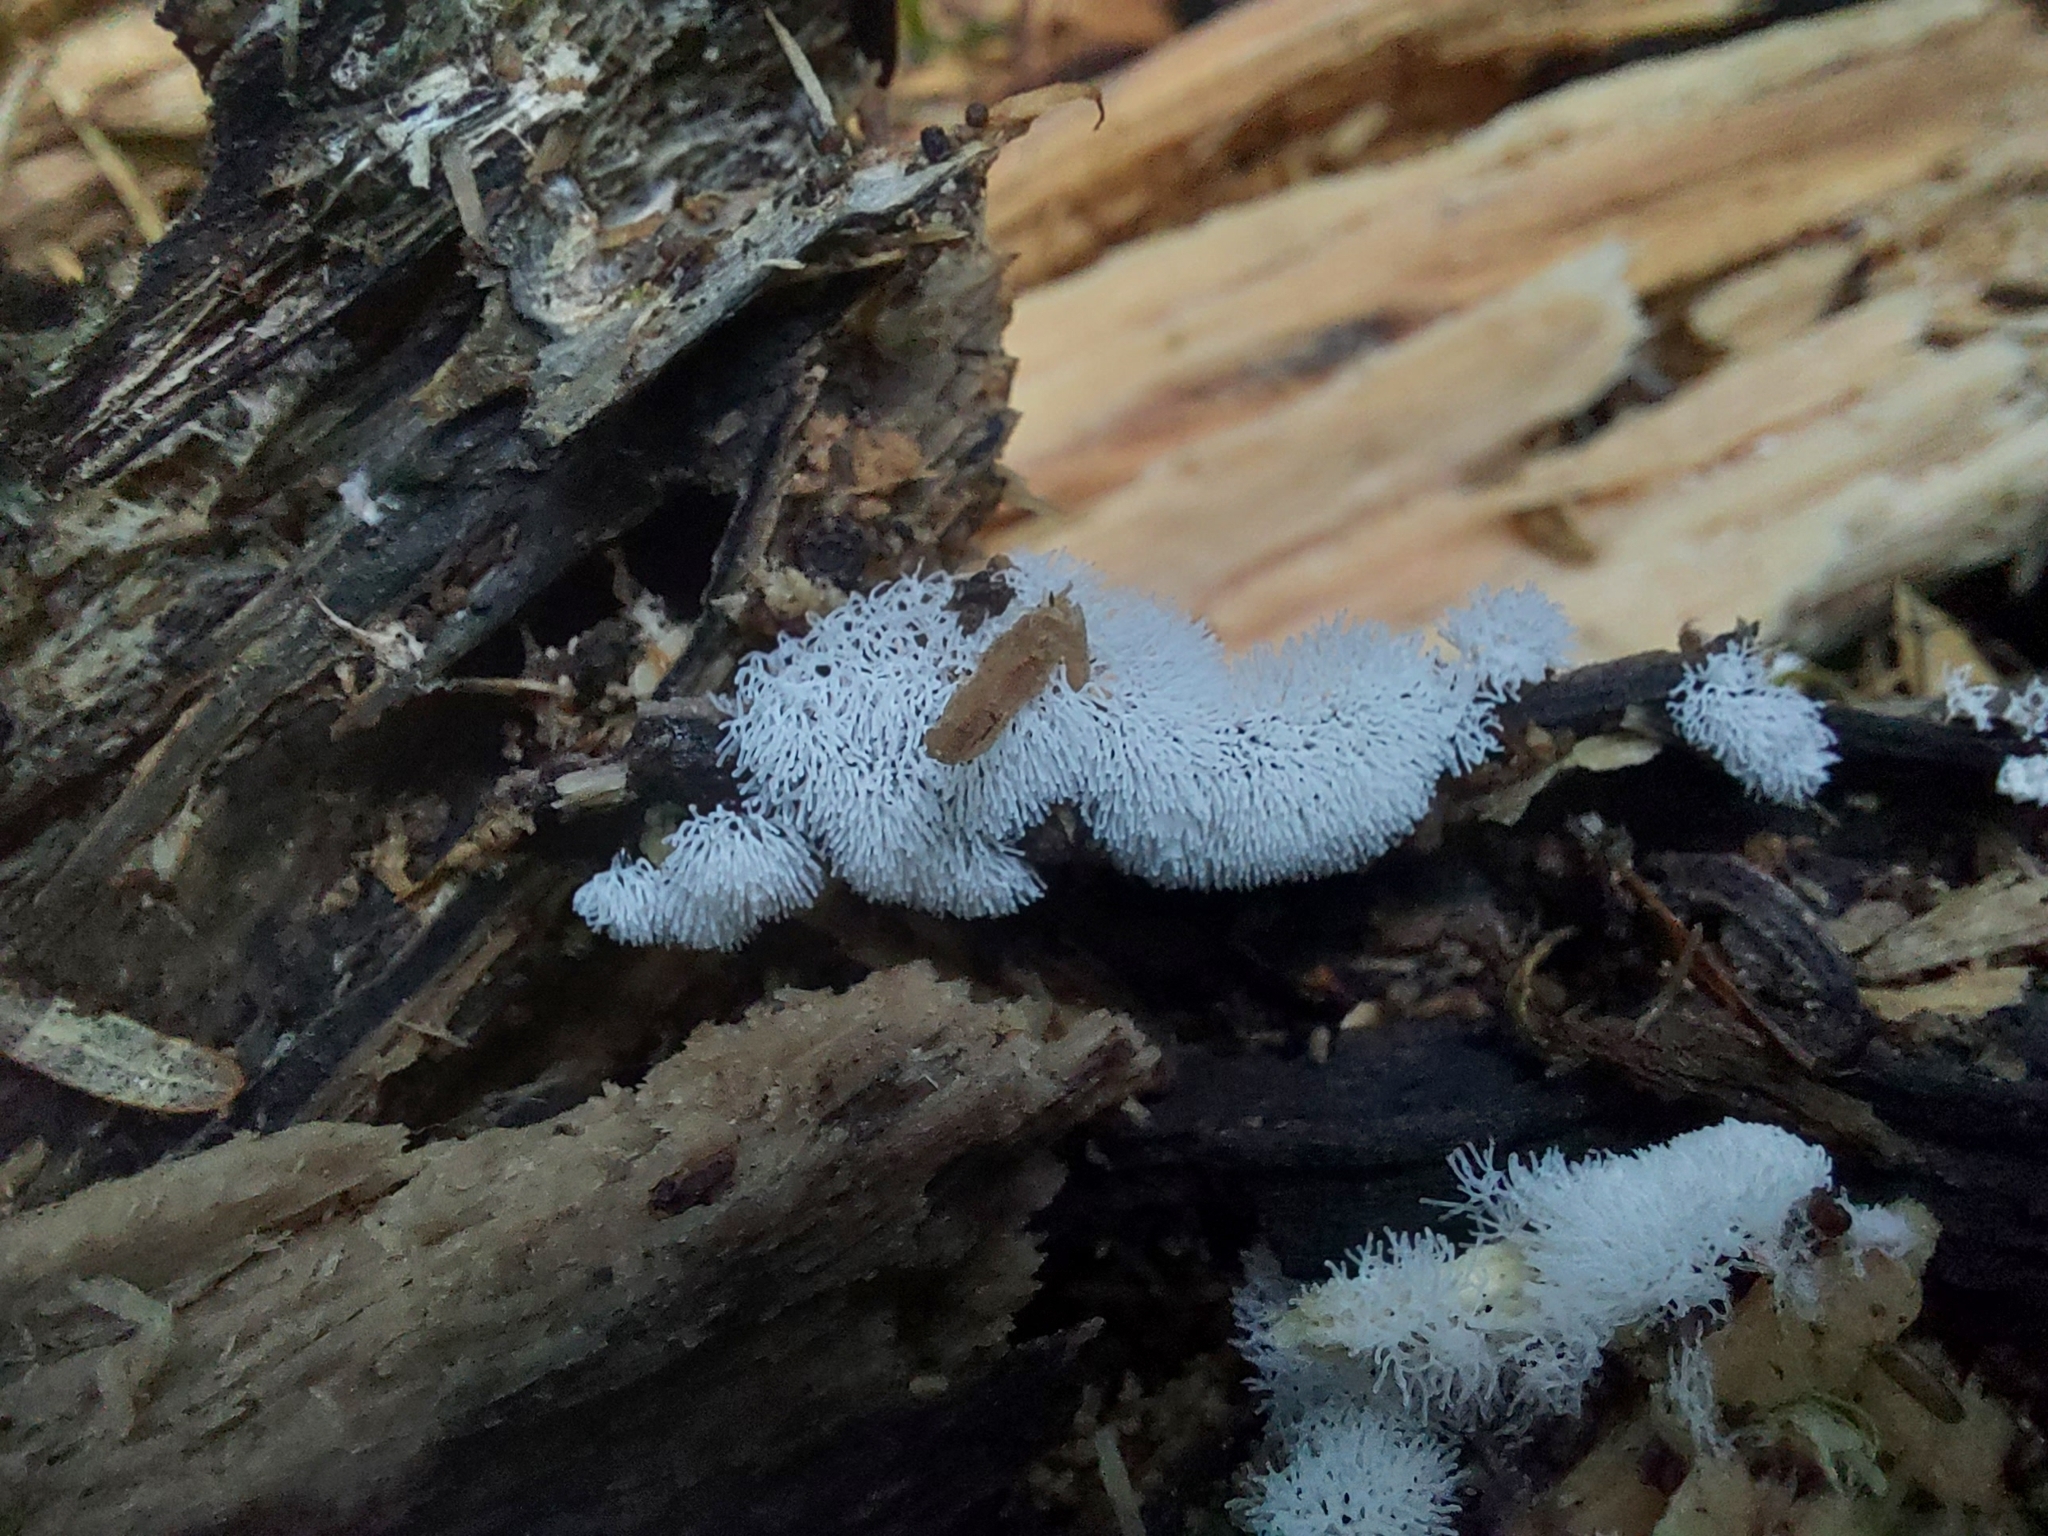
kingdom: Protozoa
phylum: Mycetozoa
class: Protosteliomycetes
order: Ceratiomyxales
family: Ceratiomyxaceae
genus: Ceratiomyxa
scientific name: Ceratiomyxa fruticulosa
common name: Honeycomb coral slime mold
